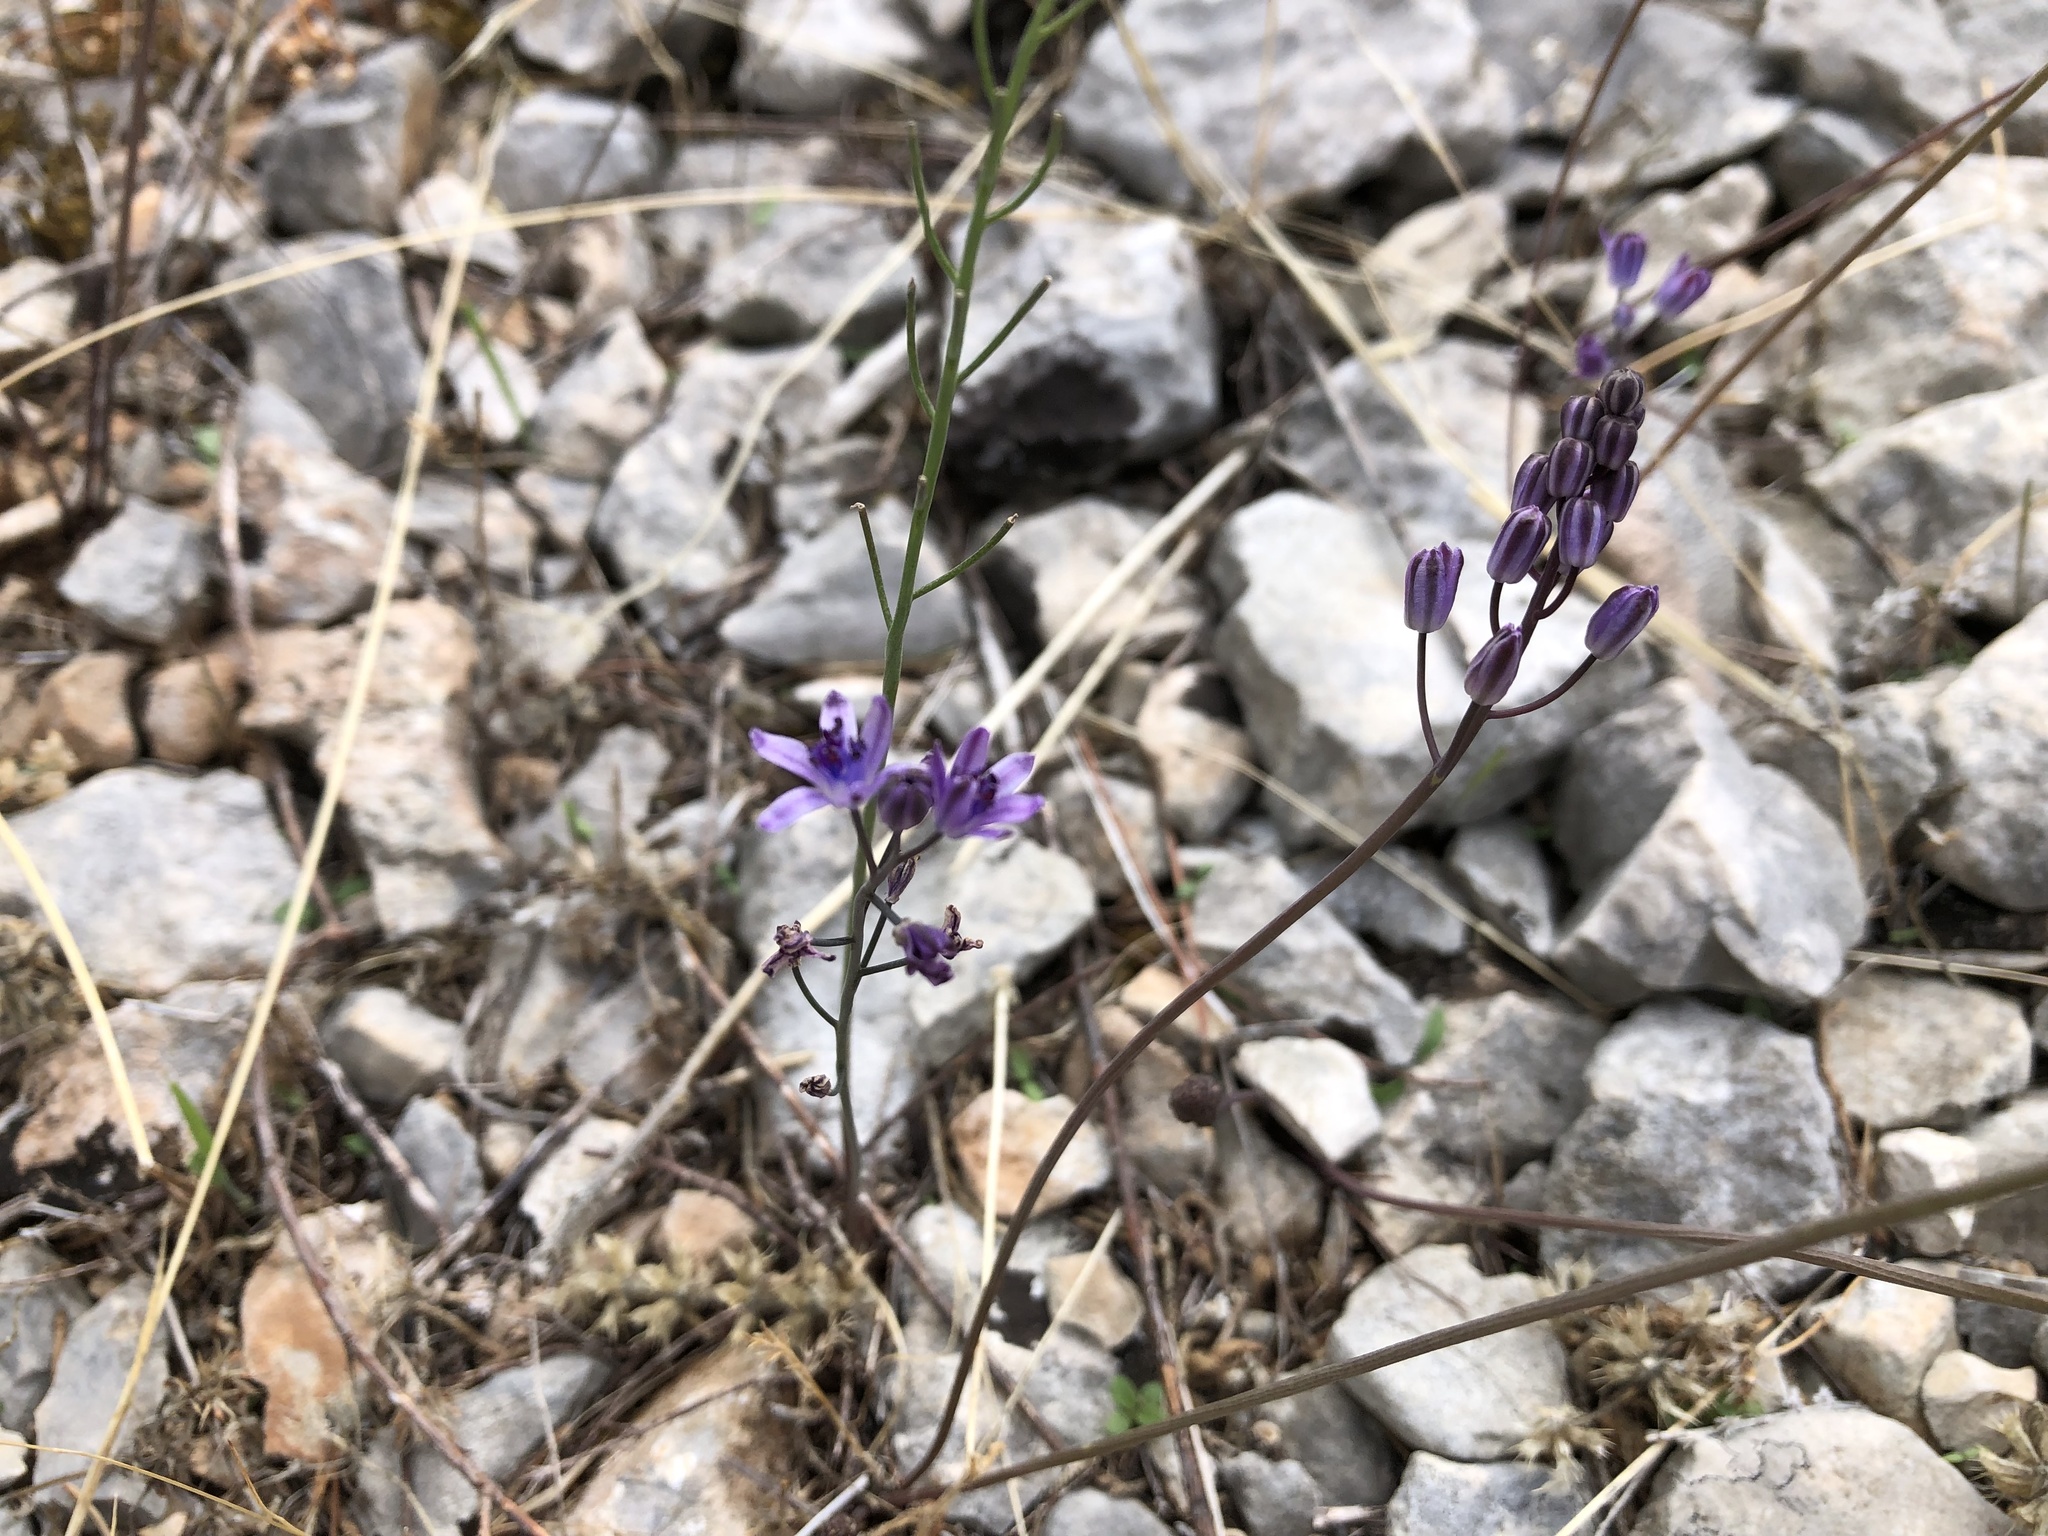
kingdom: Plantae
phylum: Tracheophyta
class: Liliopsida
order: Asparagales
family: Asparagaceae
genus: Prospero
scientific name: Prospero autumnale
